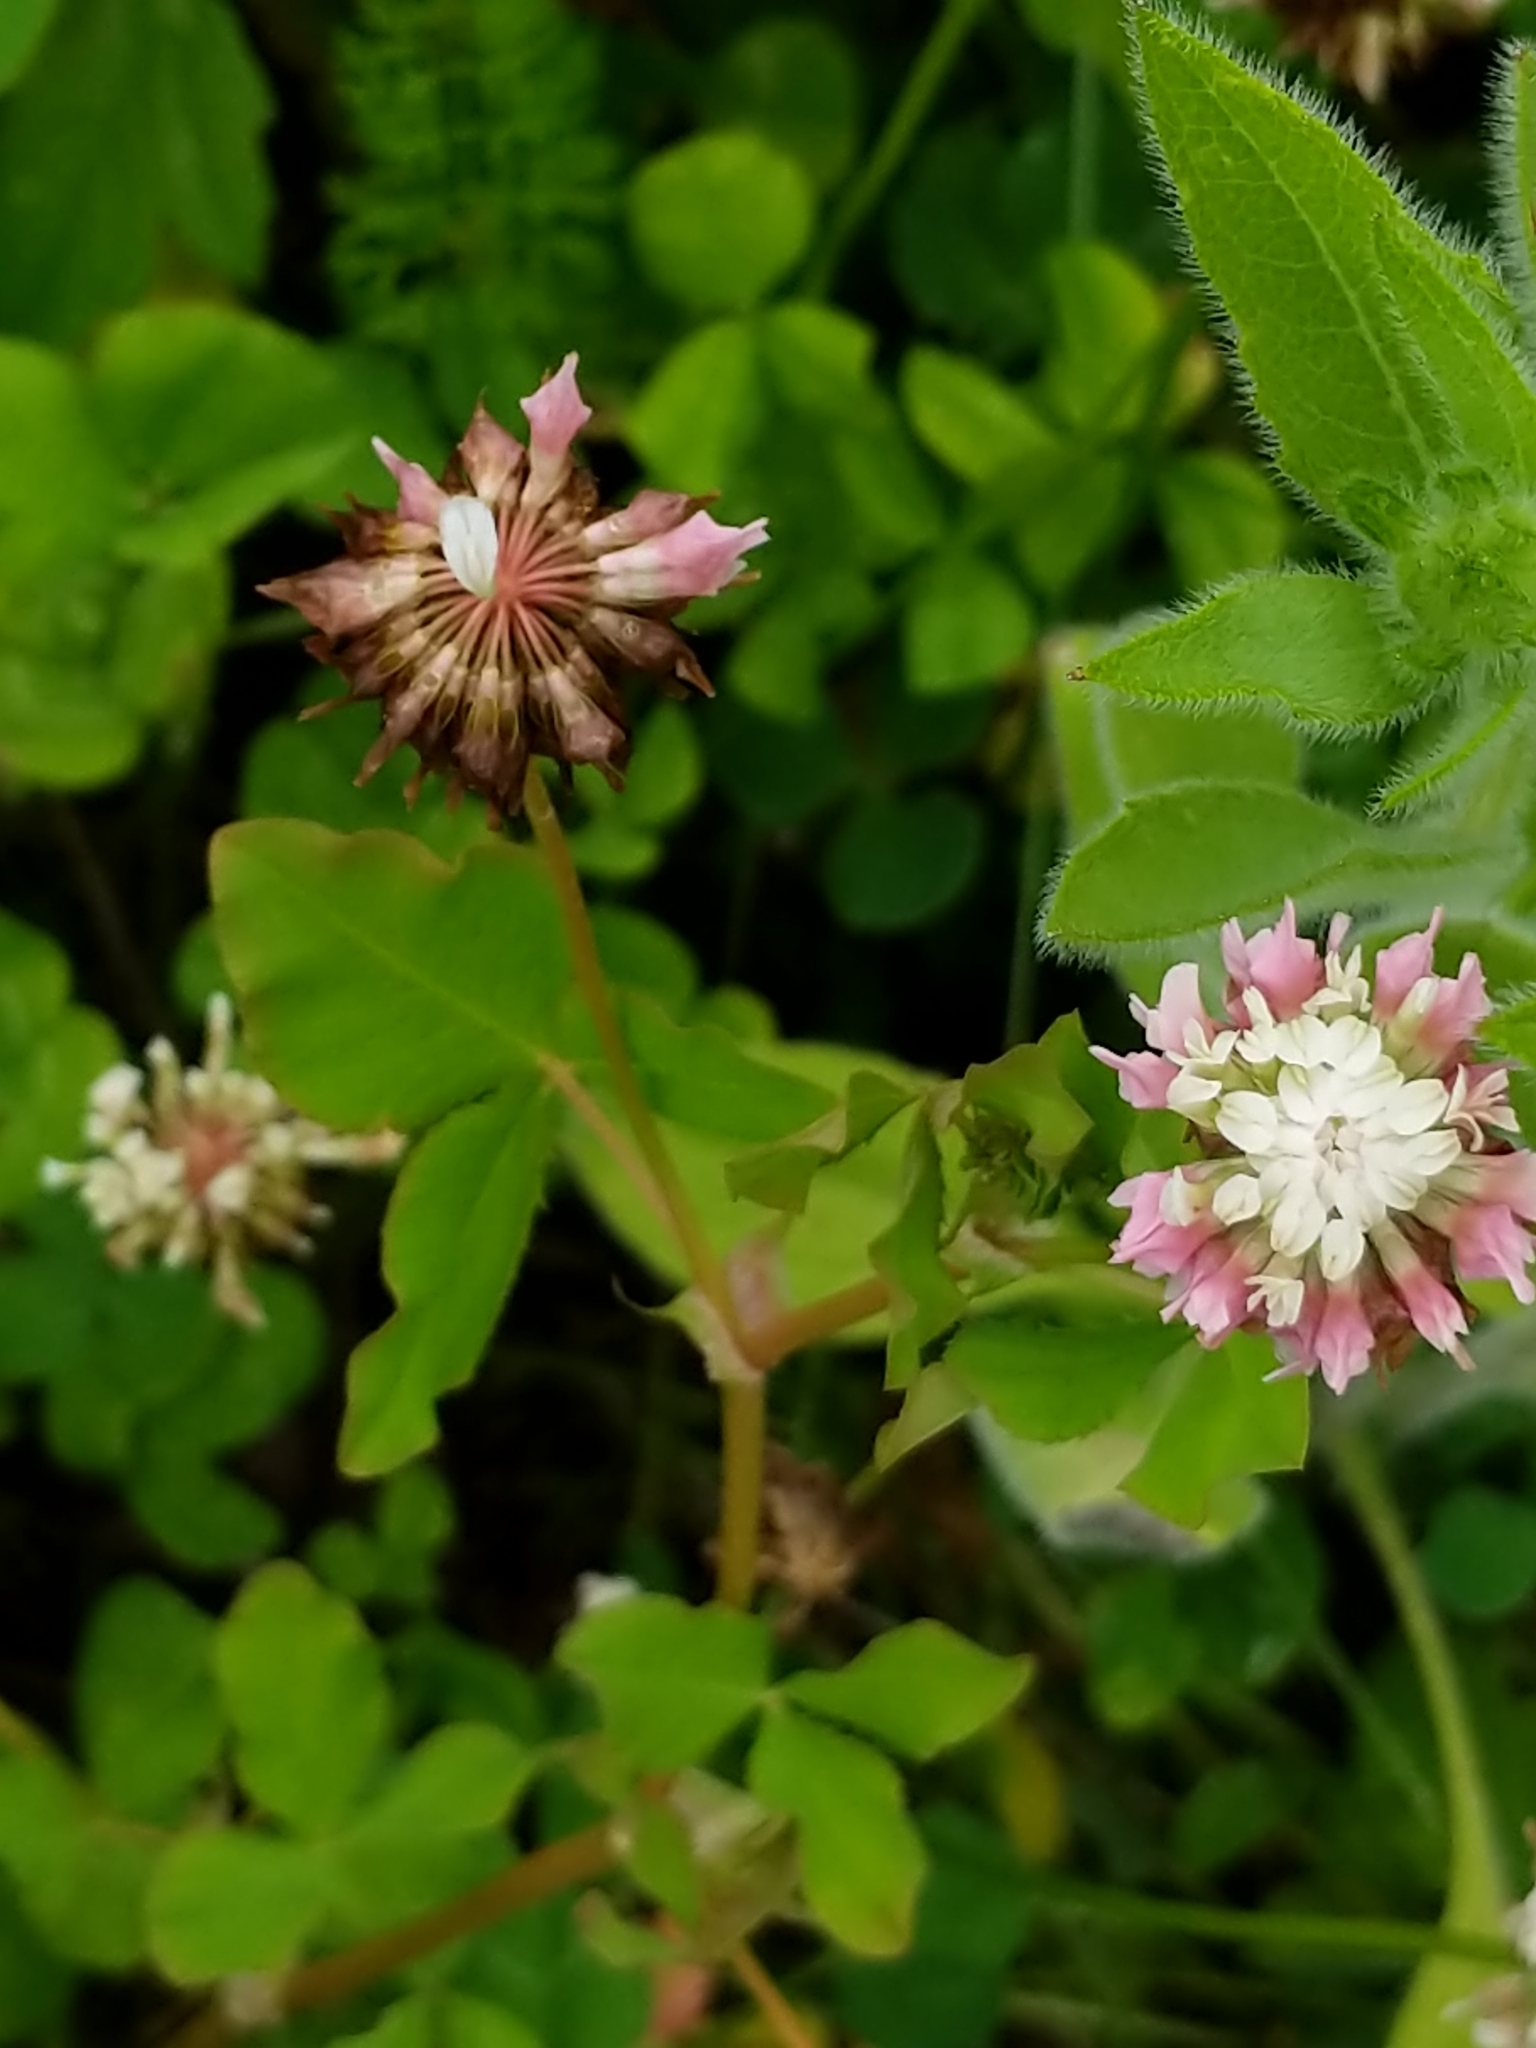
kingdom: Plantae
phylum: Tracheophyta
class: Magnoliopsida
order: Fabales
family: Fabaceae
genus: Trifolium
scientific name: Trifolium hybridum
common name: Alsike clover
